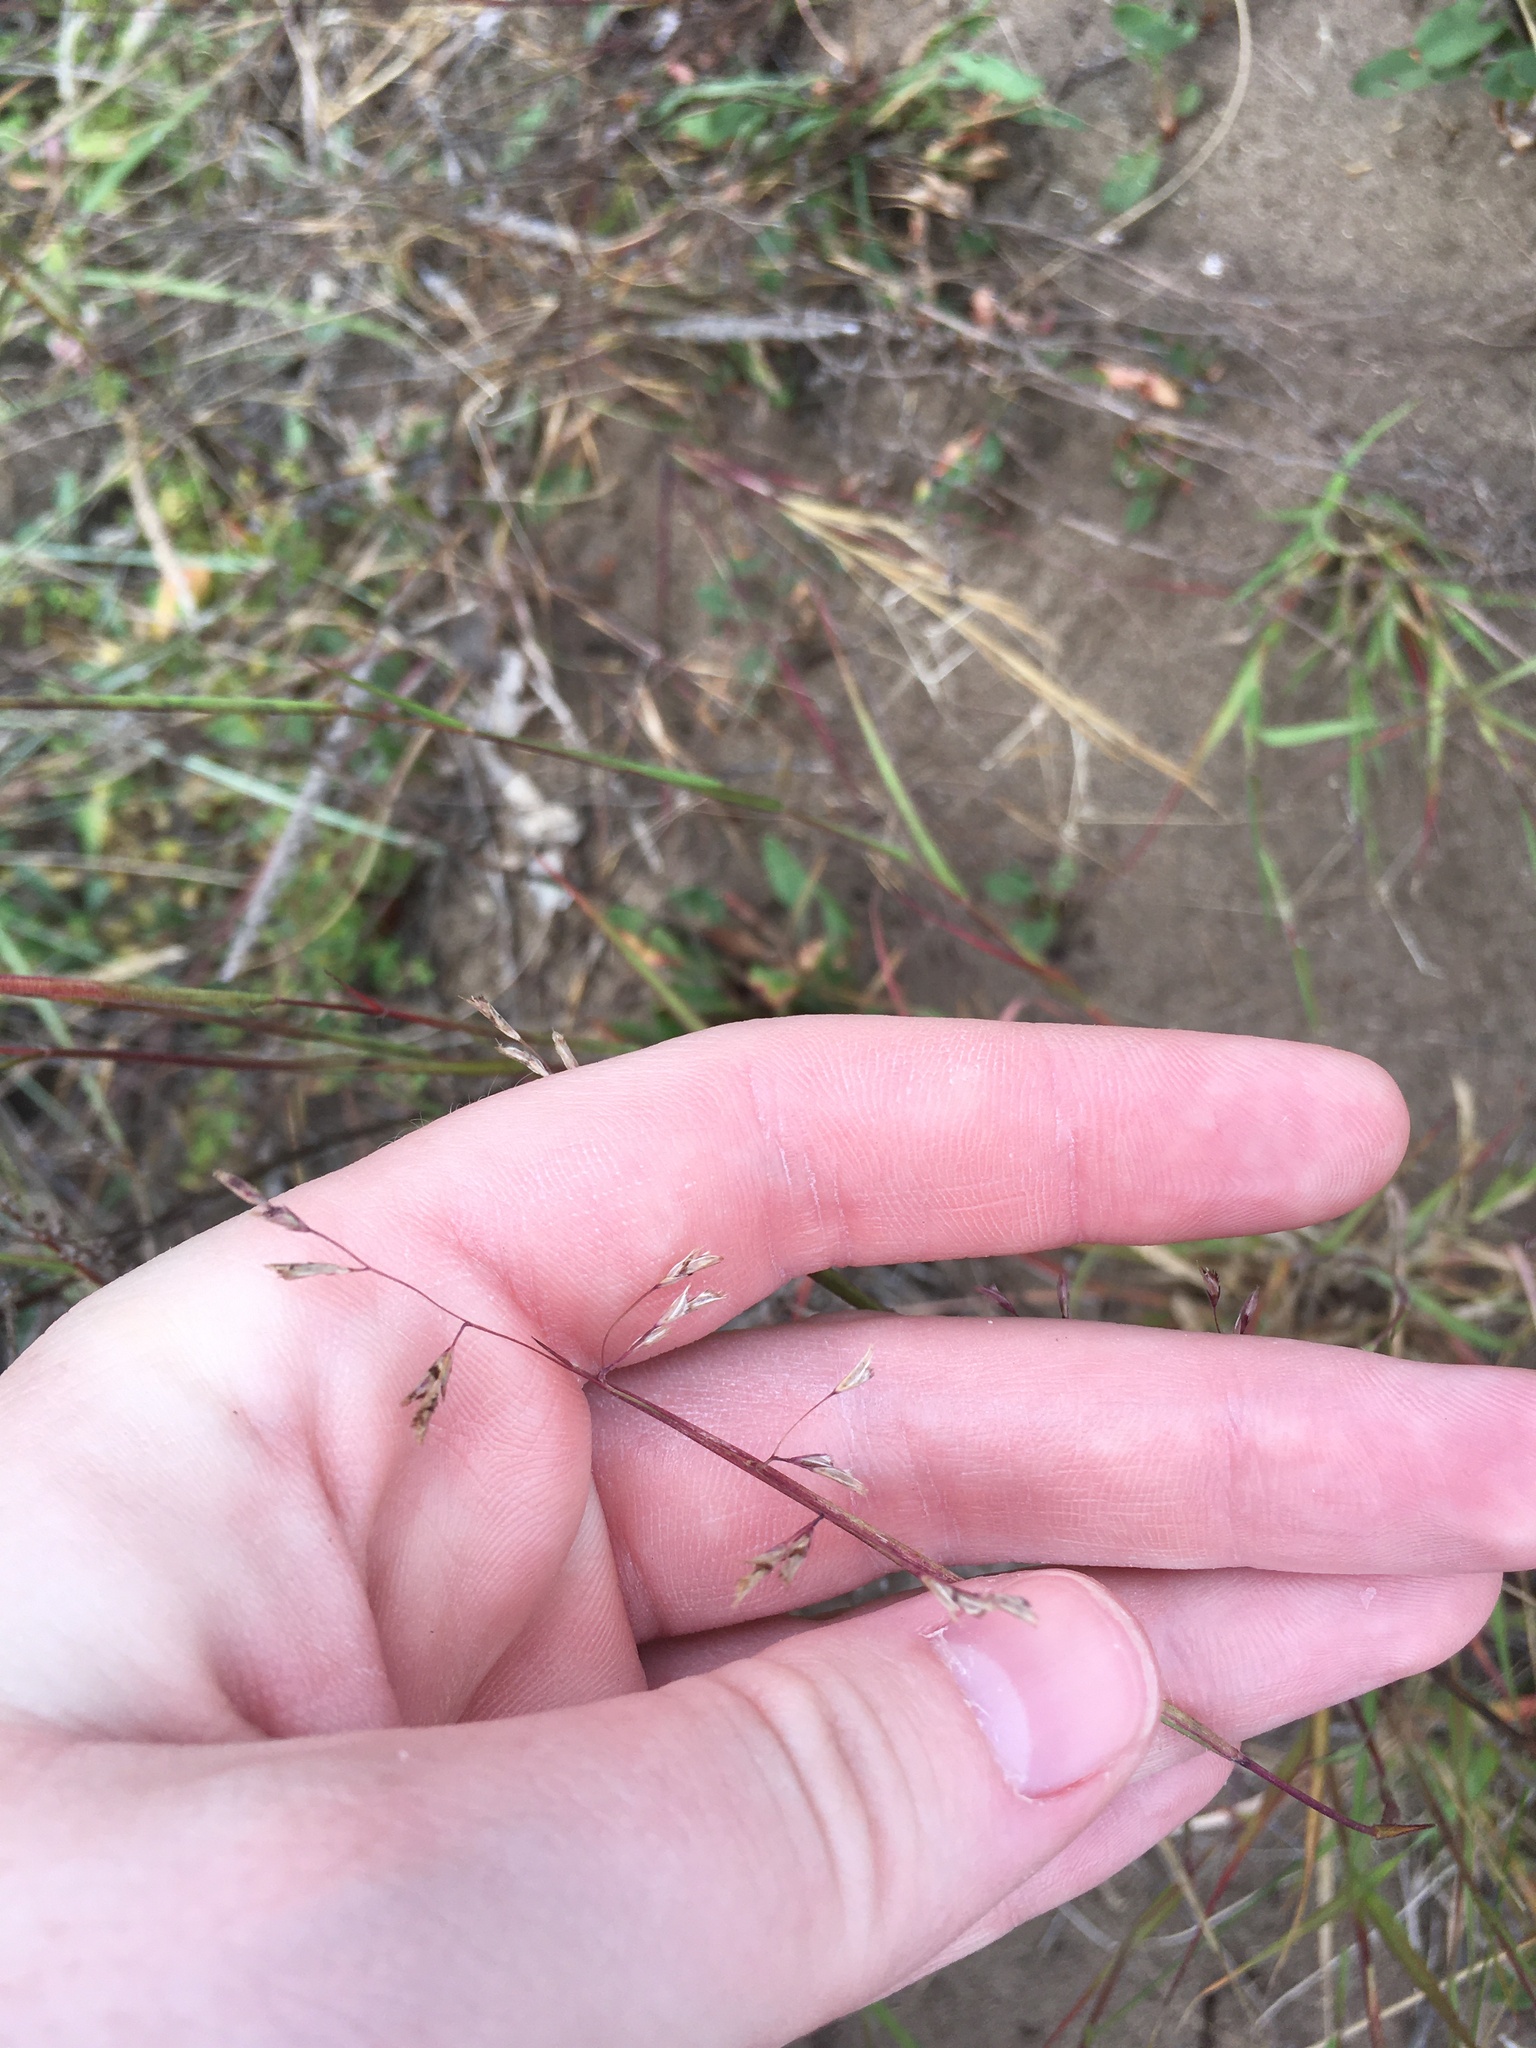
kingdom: Plantae
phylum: Tracheophyta
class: Liliopsida
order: Poales
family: Poaceae
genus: Triplasis
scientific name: Triplasis purpurea
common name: Purple sand grass
